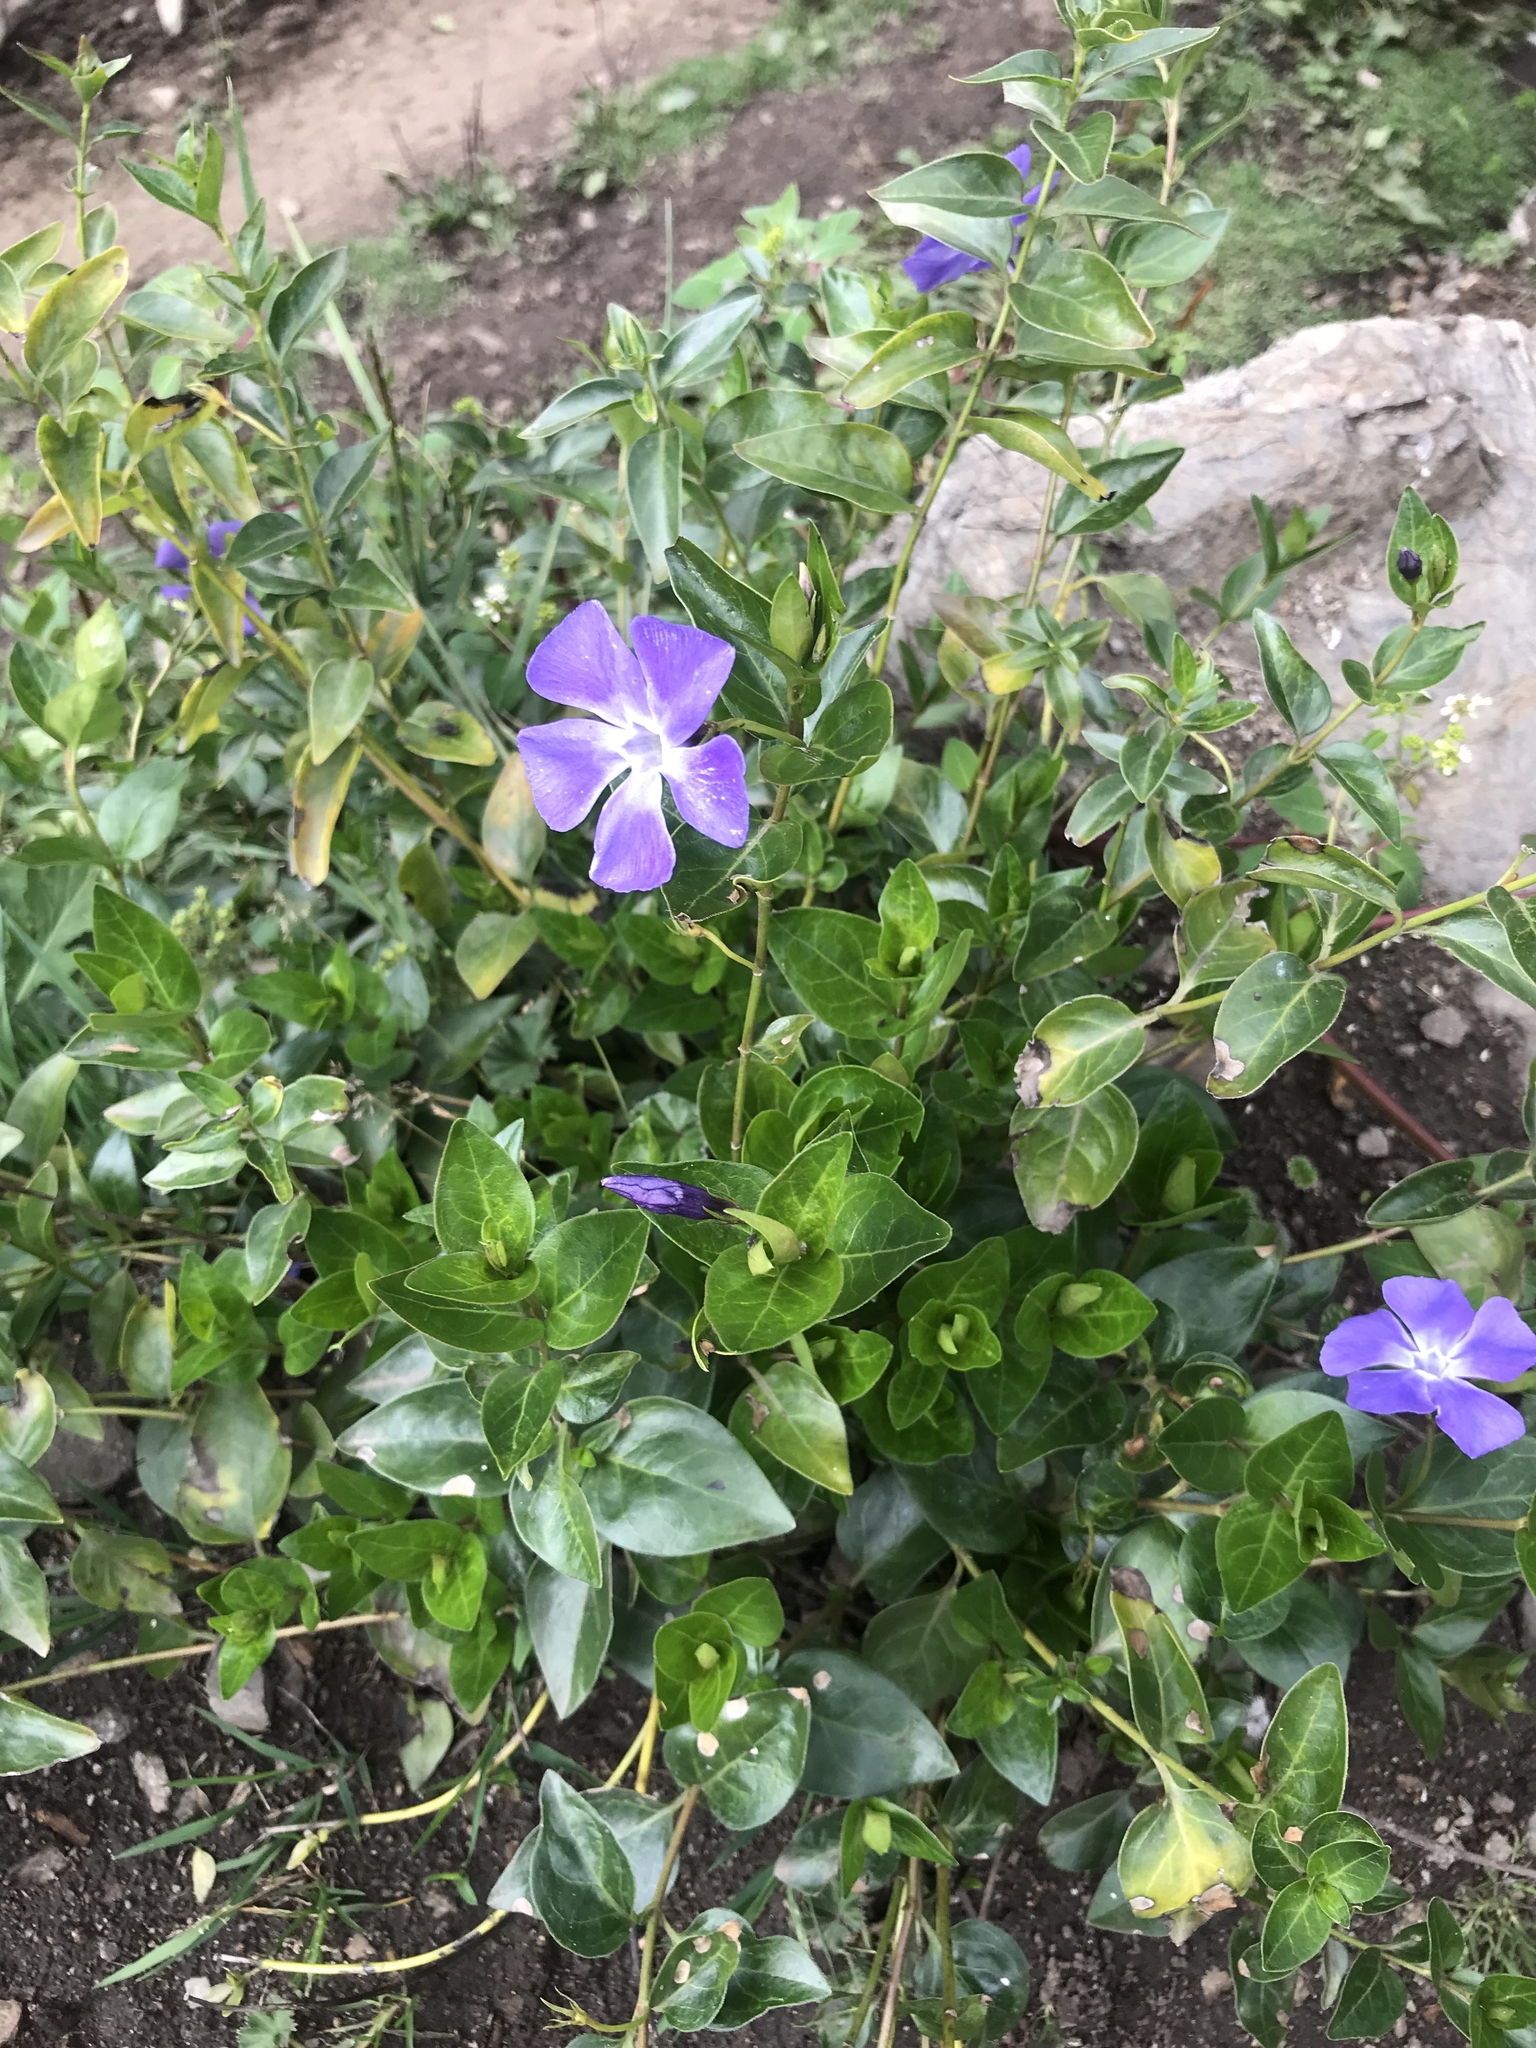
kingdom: Plantae
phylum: Tracheophyta
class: Magnoliopsida
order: Gentianales
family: Apocynaceae
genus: Vinca
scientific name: Vinca major
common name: Greater periwinkle
